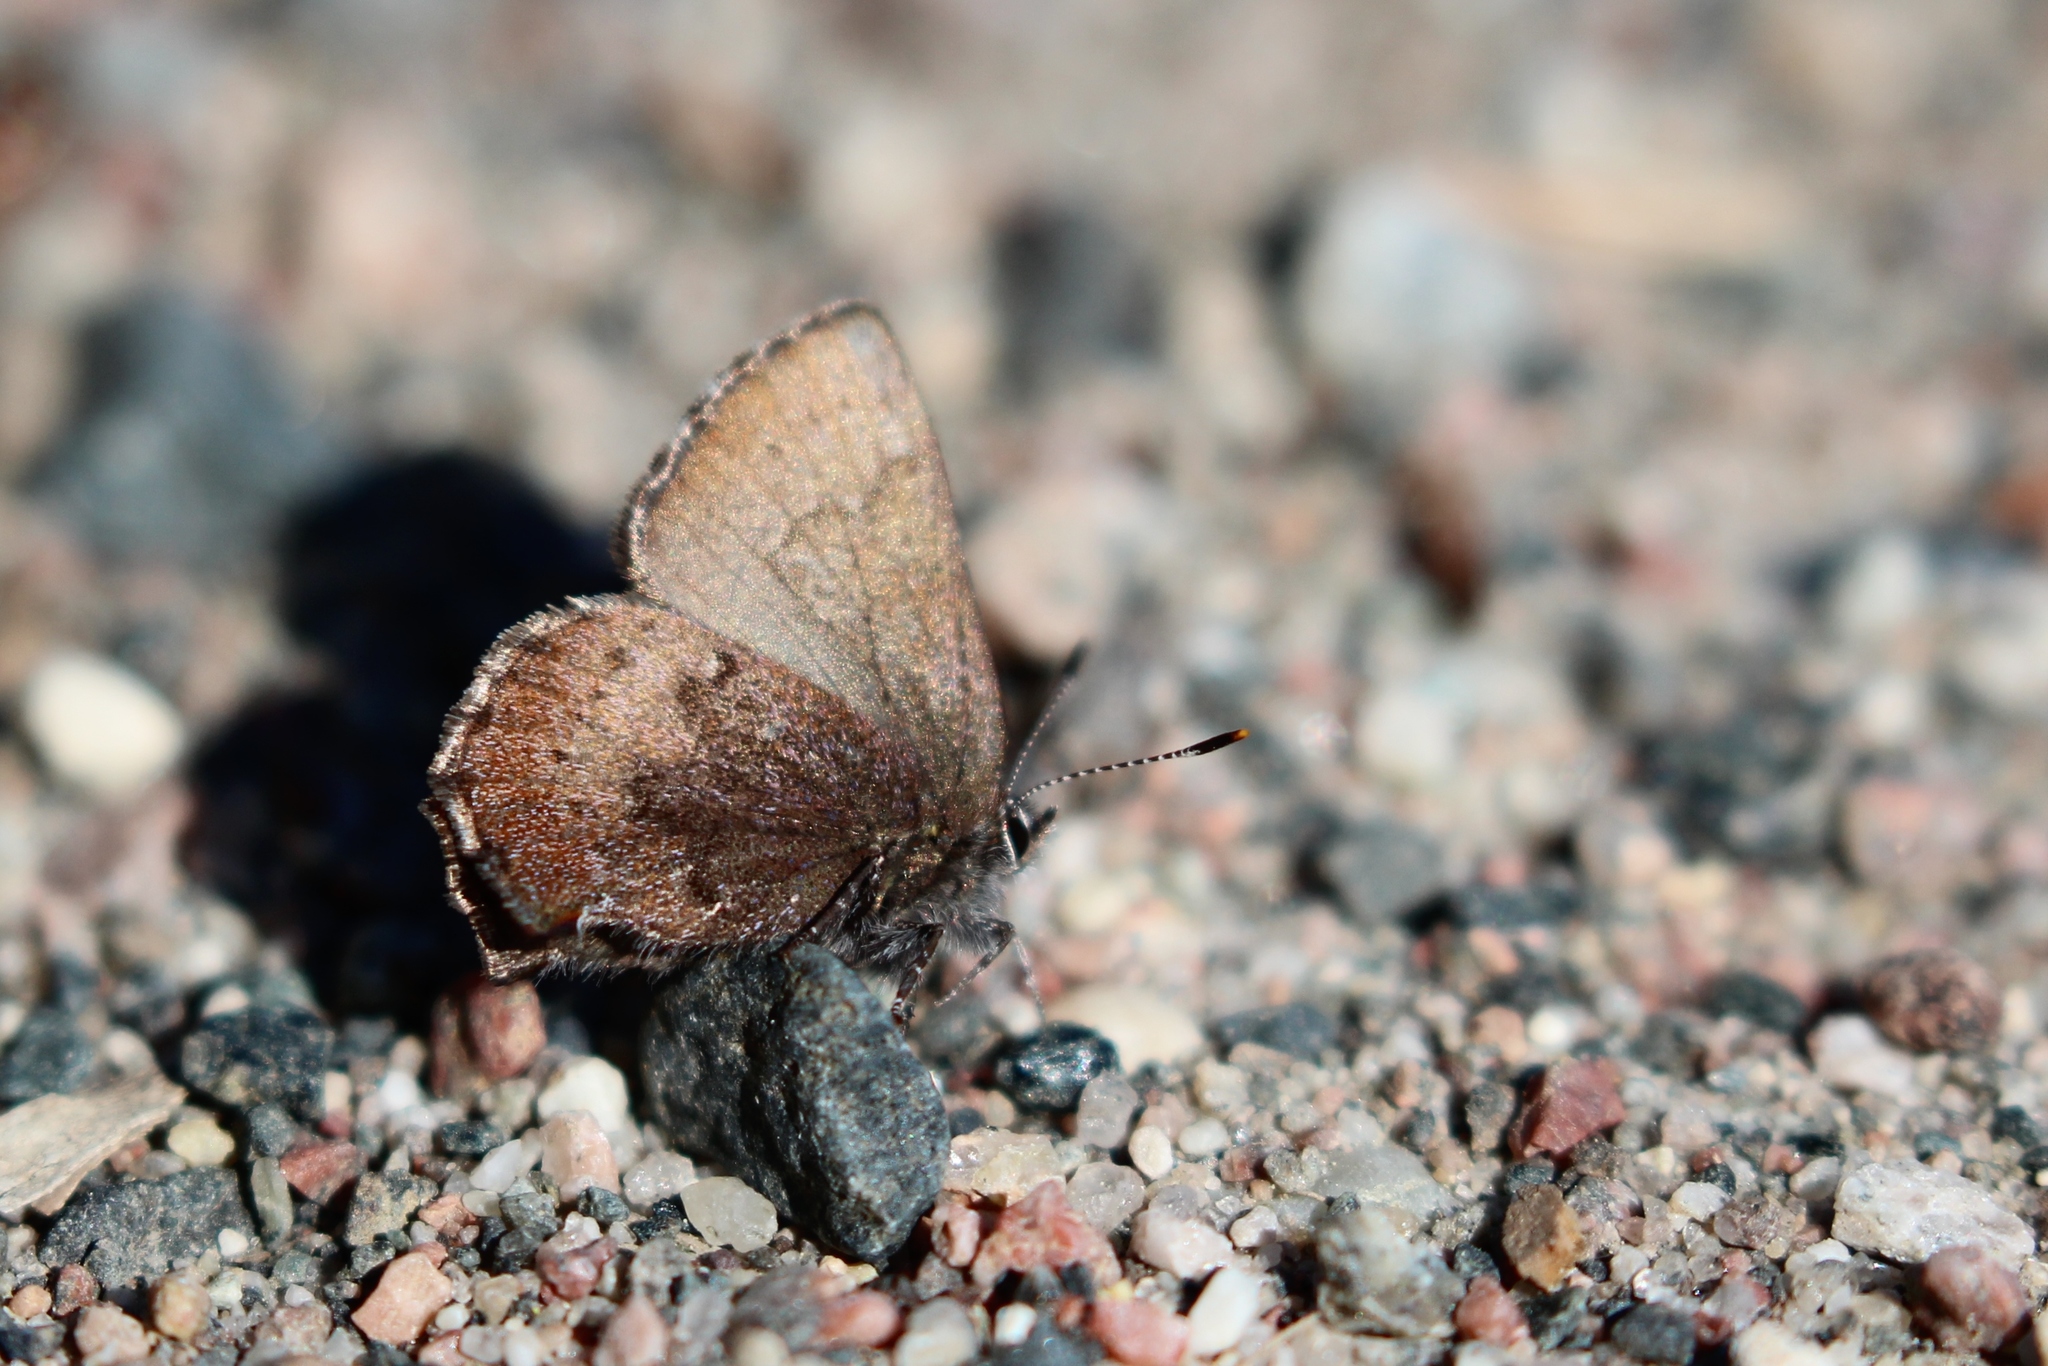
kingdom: Animalia
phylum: Arthropoda
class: Insecta
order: Lepidoptera
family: Lycaenidae
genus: Incisalia
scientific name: Incisalia irioides
